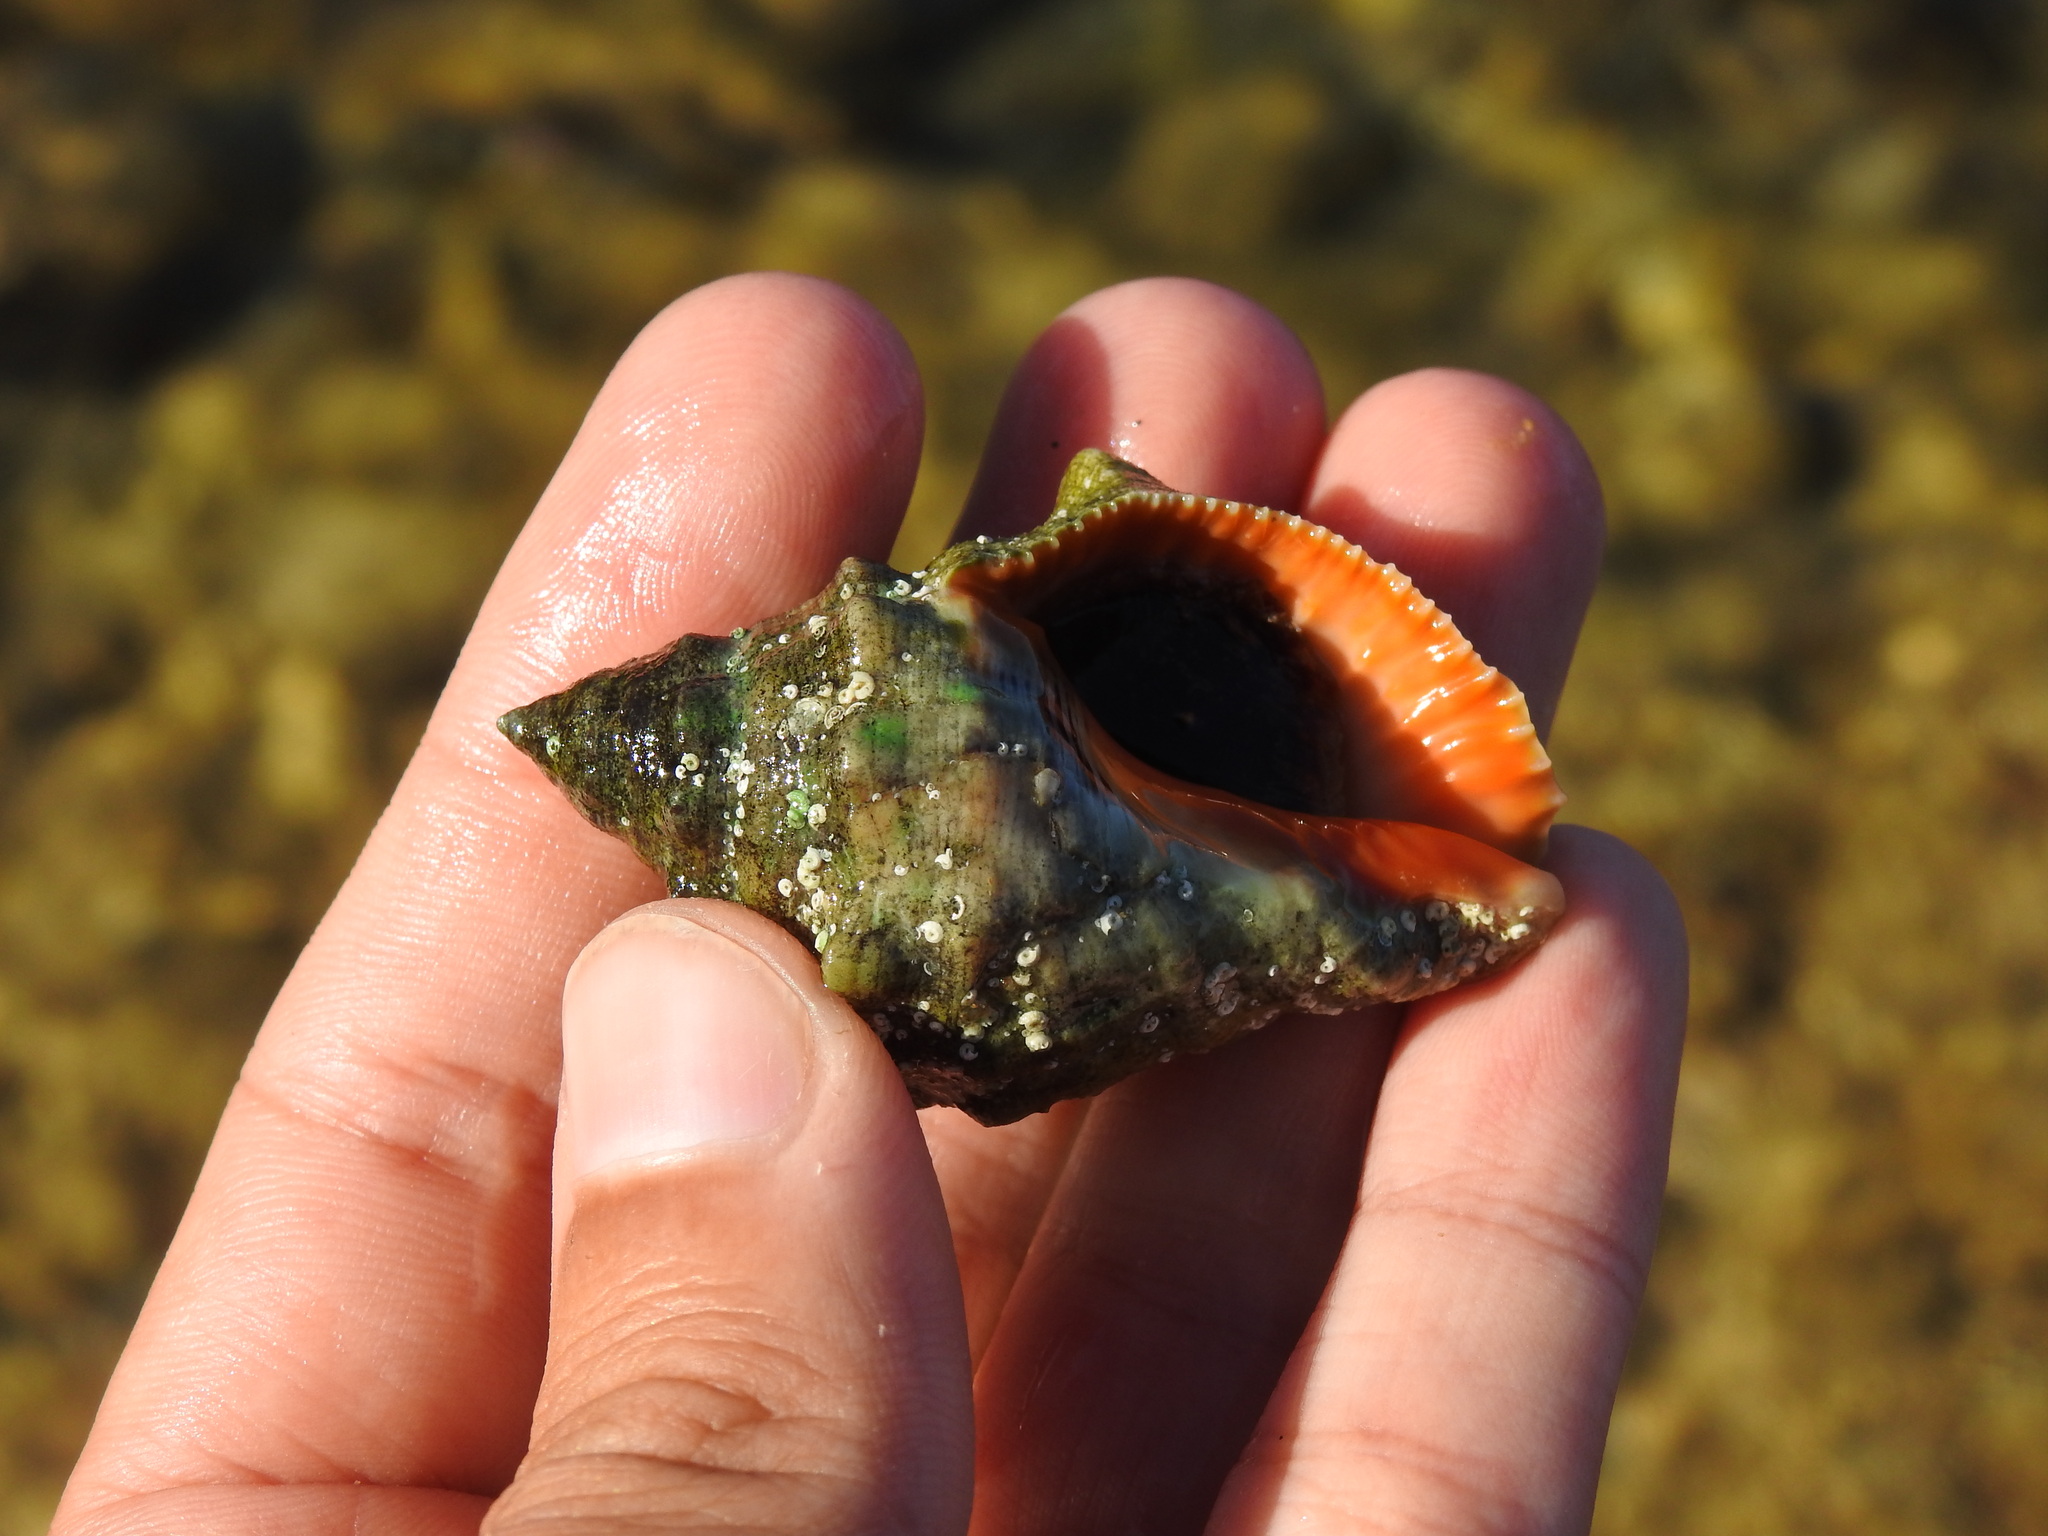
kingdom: Animalia
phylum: Mollusca
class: Gastropoda
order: Neogastropoda
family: Muricidae
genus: Stramonita
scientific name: Stramonita haemastoma
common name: Florida dog winkle
